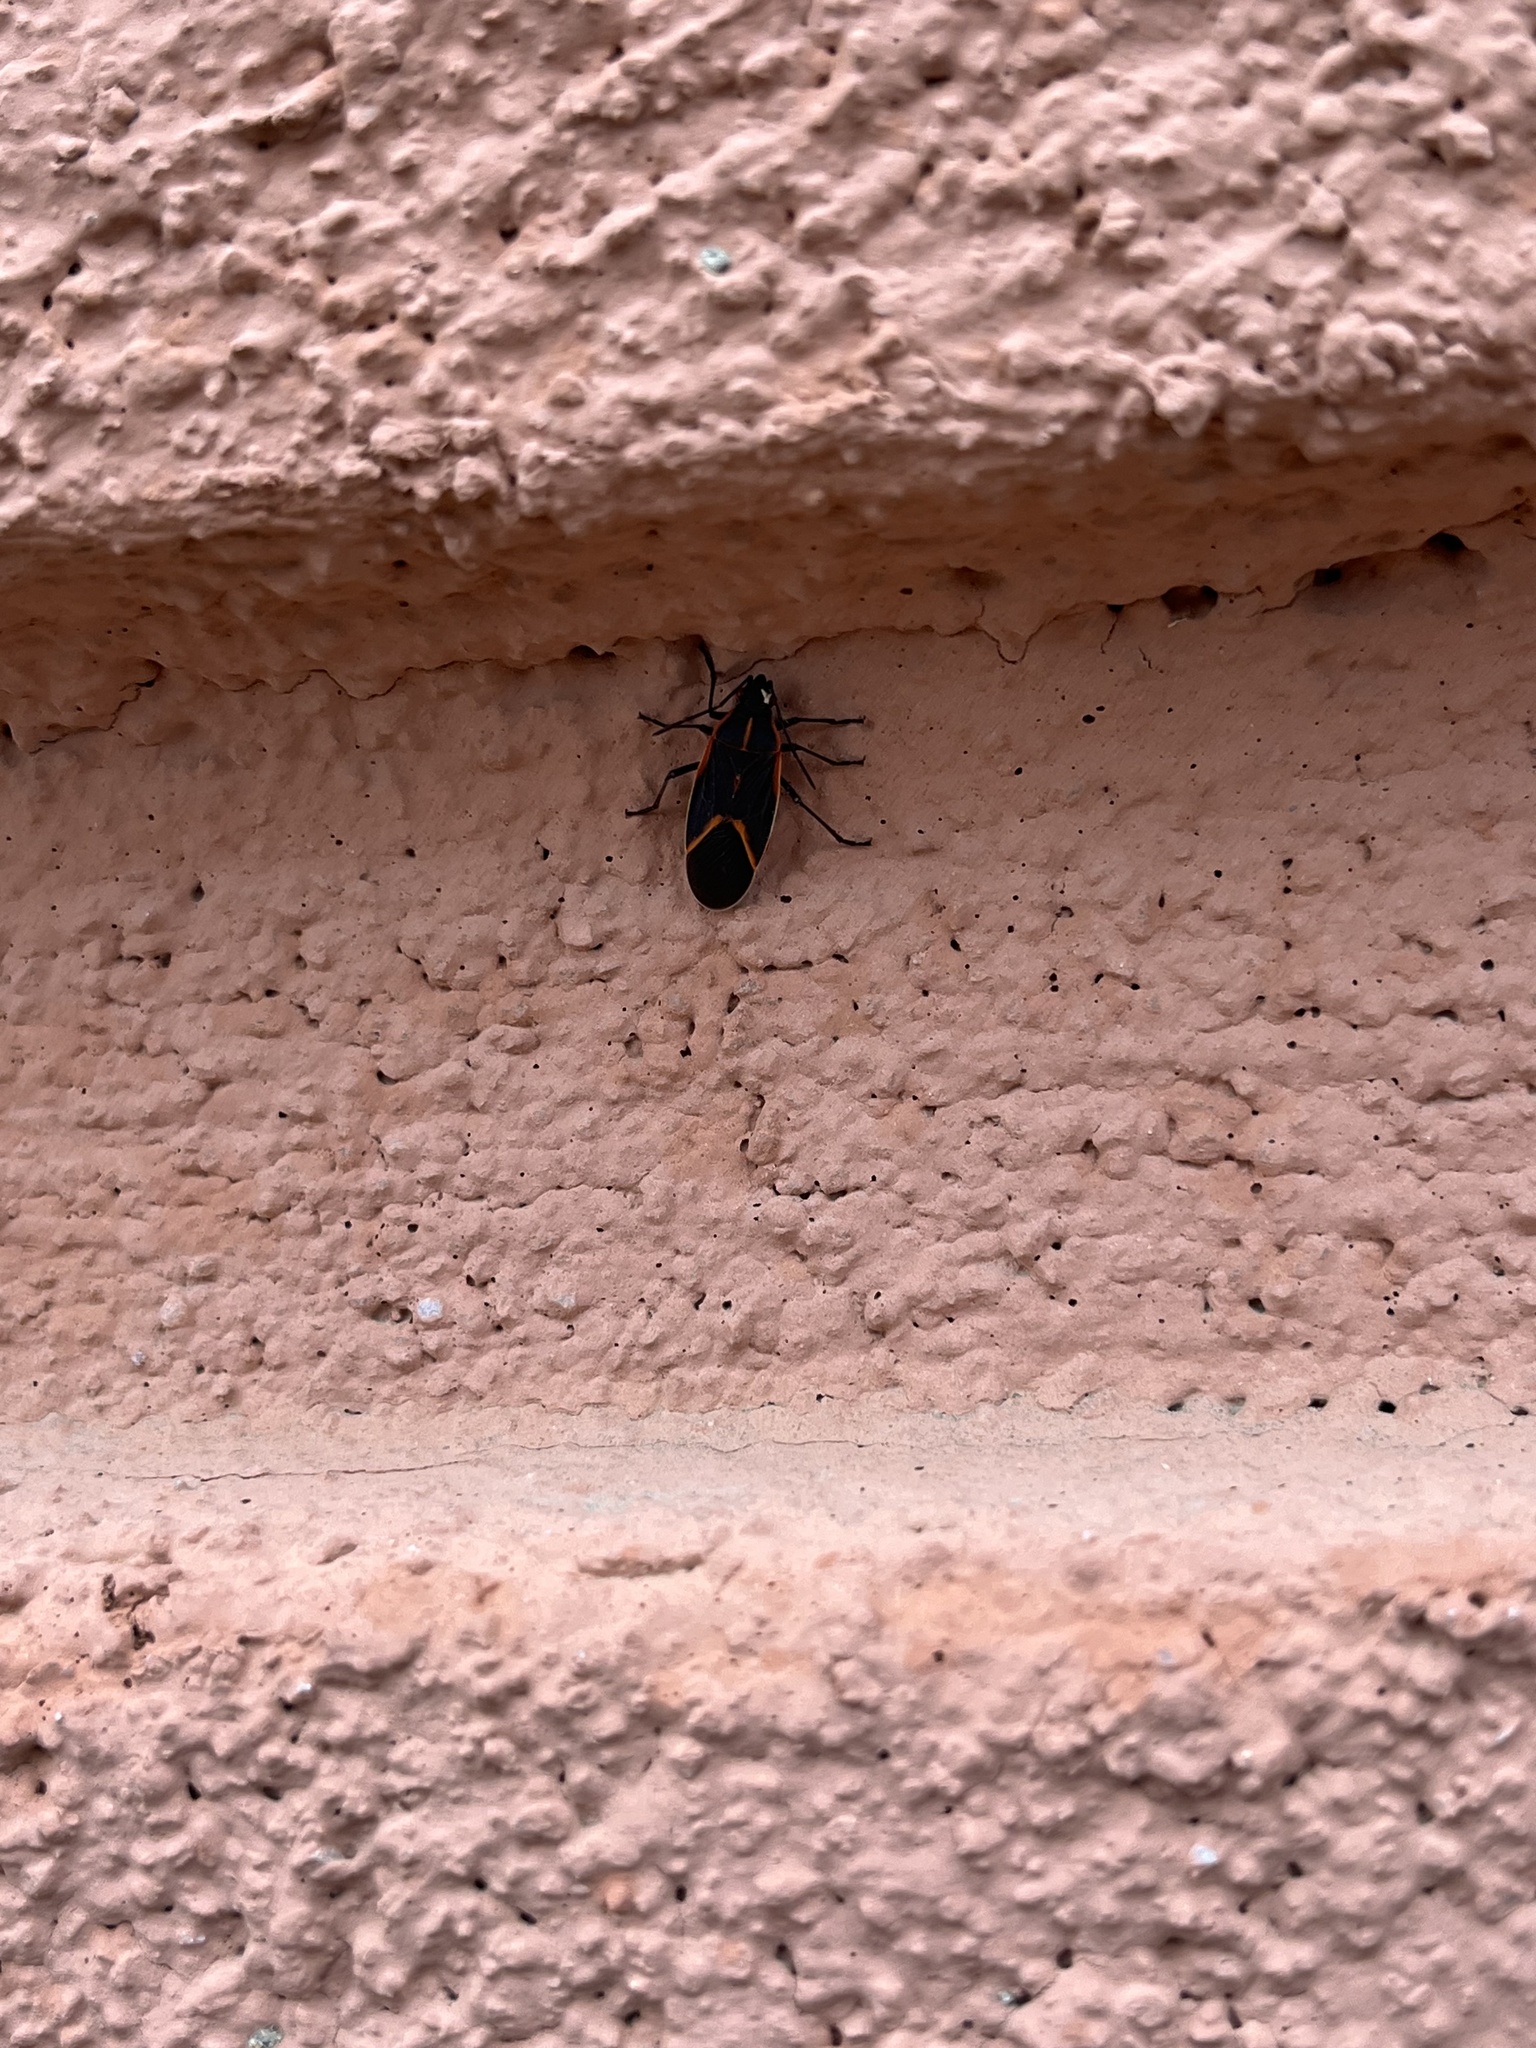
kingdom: Animalia
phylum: Arthropoda
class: Insecta
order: Hemiptera
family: Rhopalidae
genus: Boisea
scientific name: Boisea trivittata
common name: Boxelder bug
